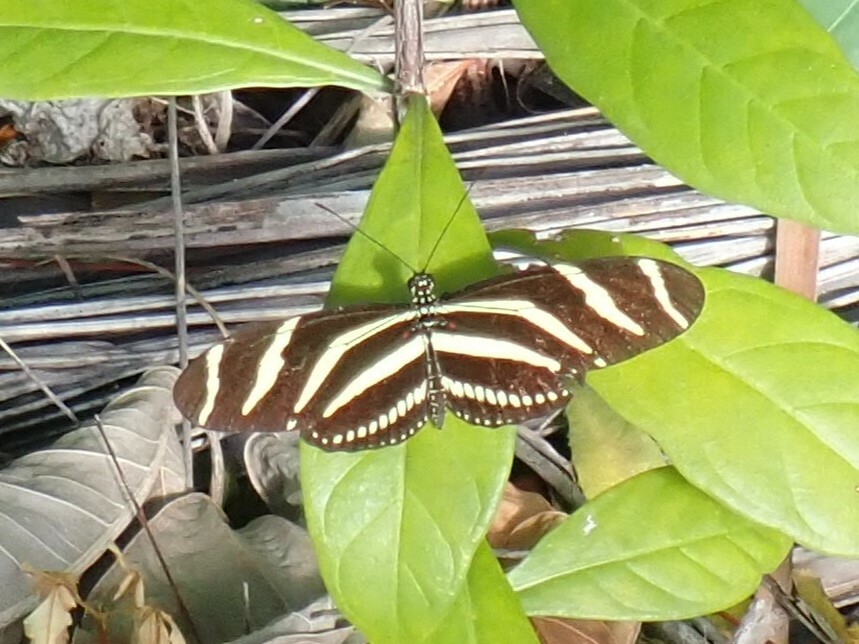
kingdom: Animalia
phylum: Arthropoda
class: Insecta
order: Lepidoptera
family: Nymphalidae
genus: Heliconius
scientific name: Heliconius charithonia
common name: Zebra long wing
